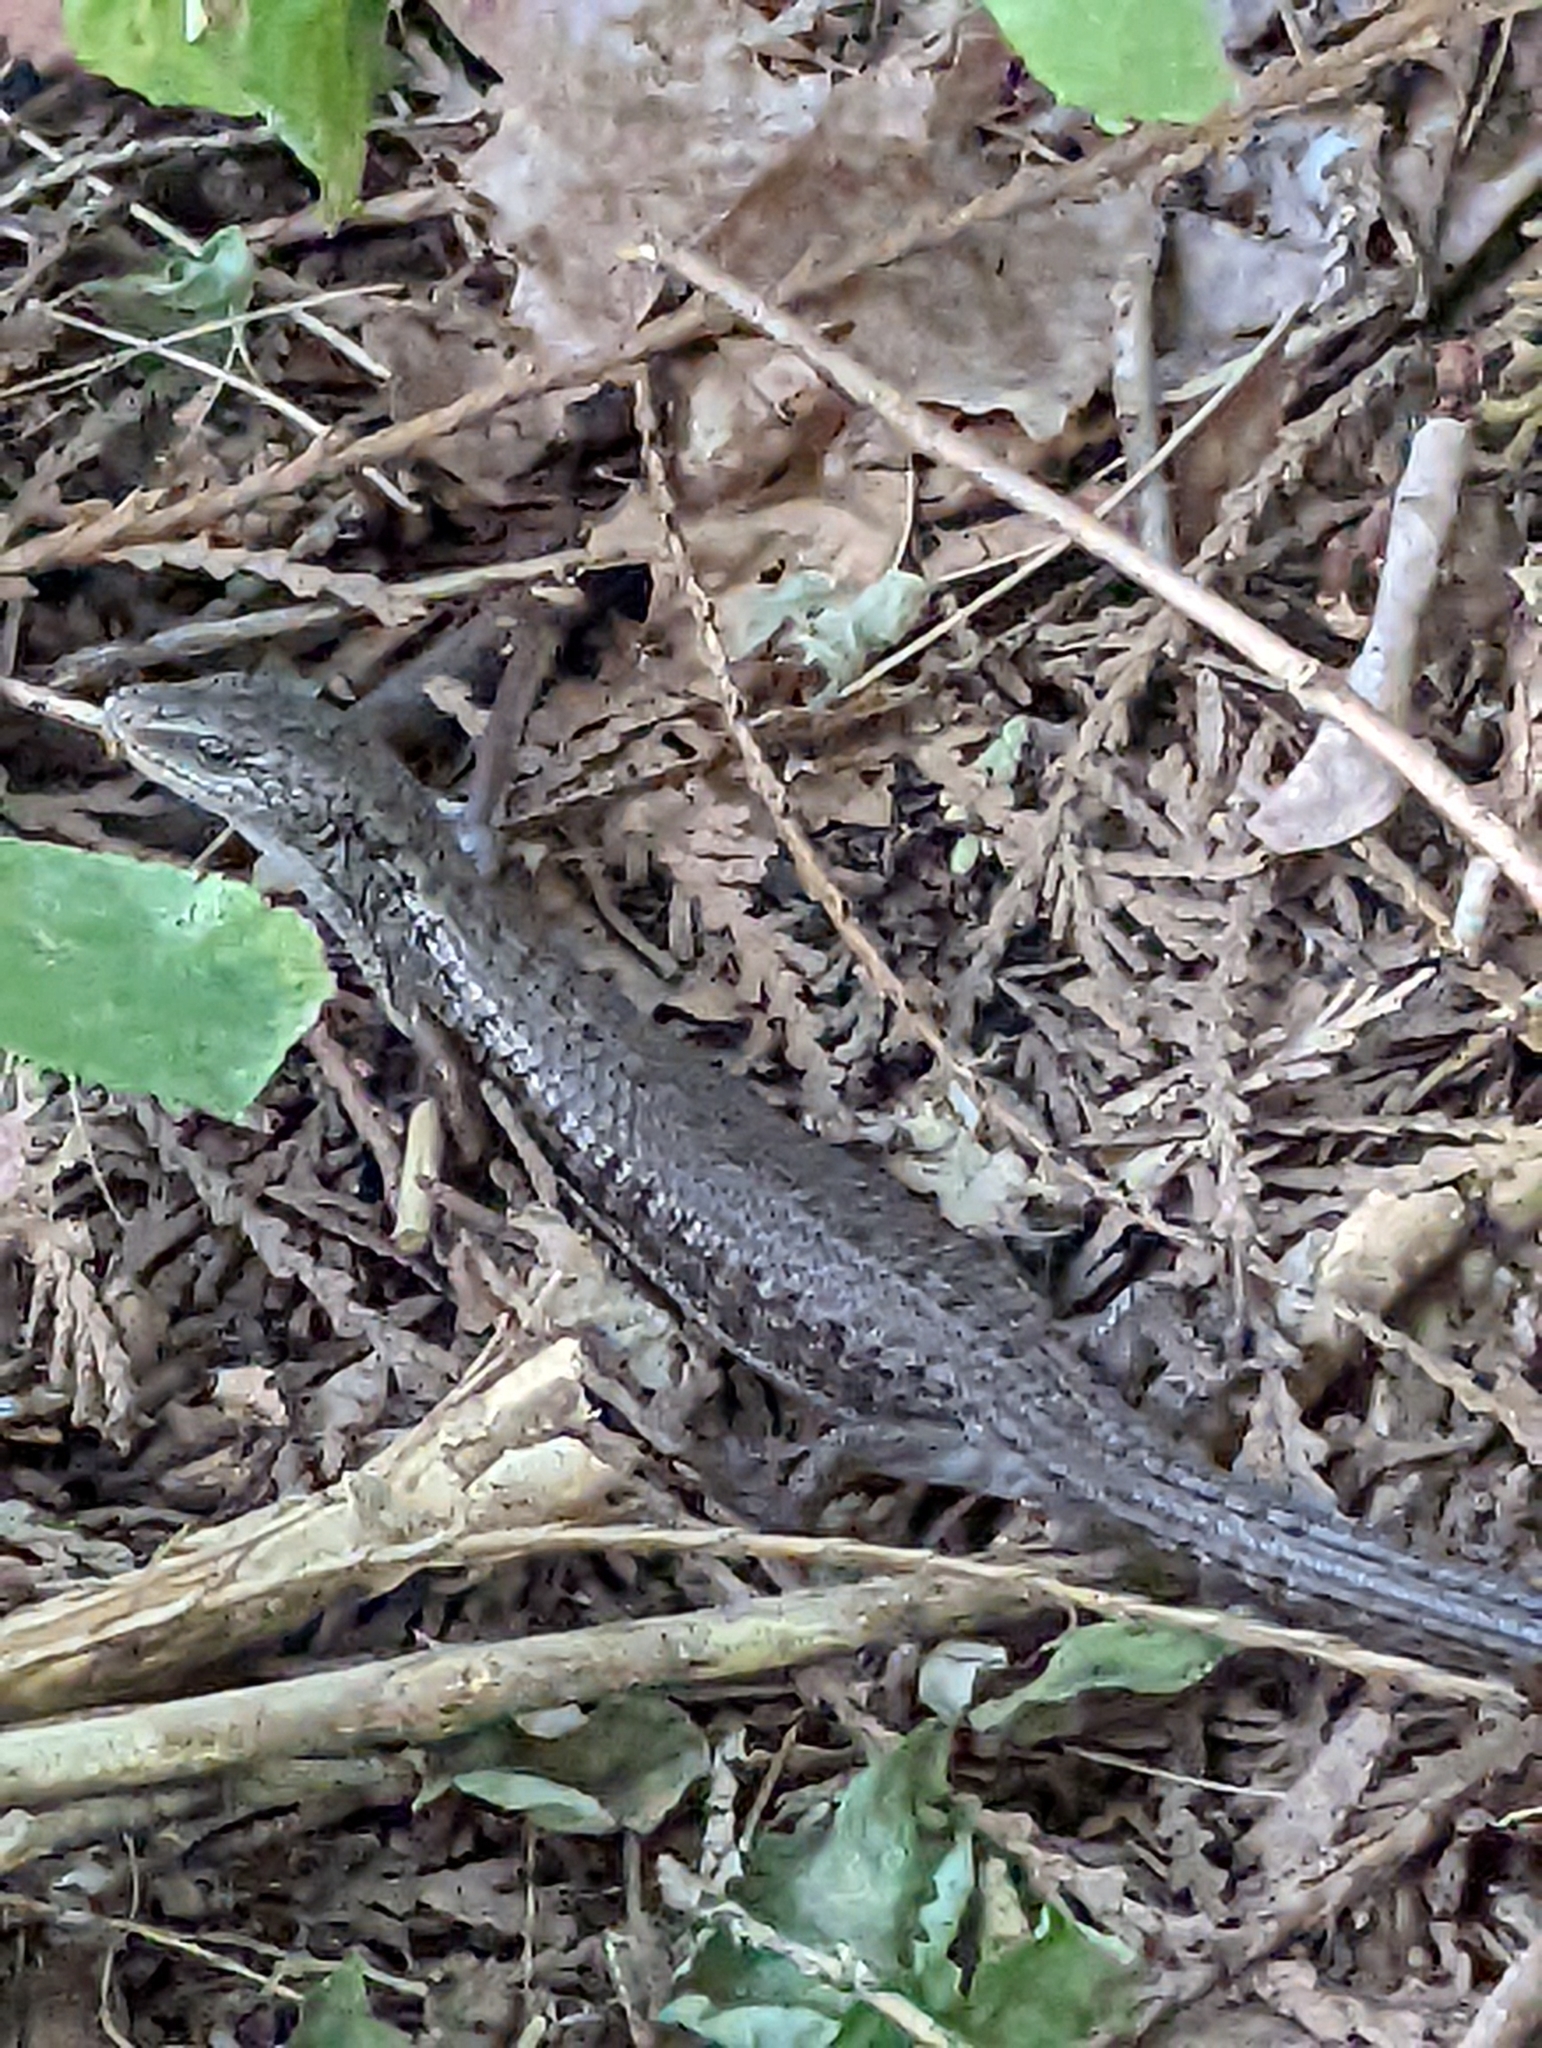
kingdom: Animalia
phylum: Chordata
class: Squamata
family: Anguidae
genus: Elgaria
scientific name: Elgaria coerulea
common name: Northern alligator lizard
